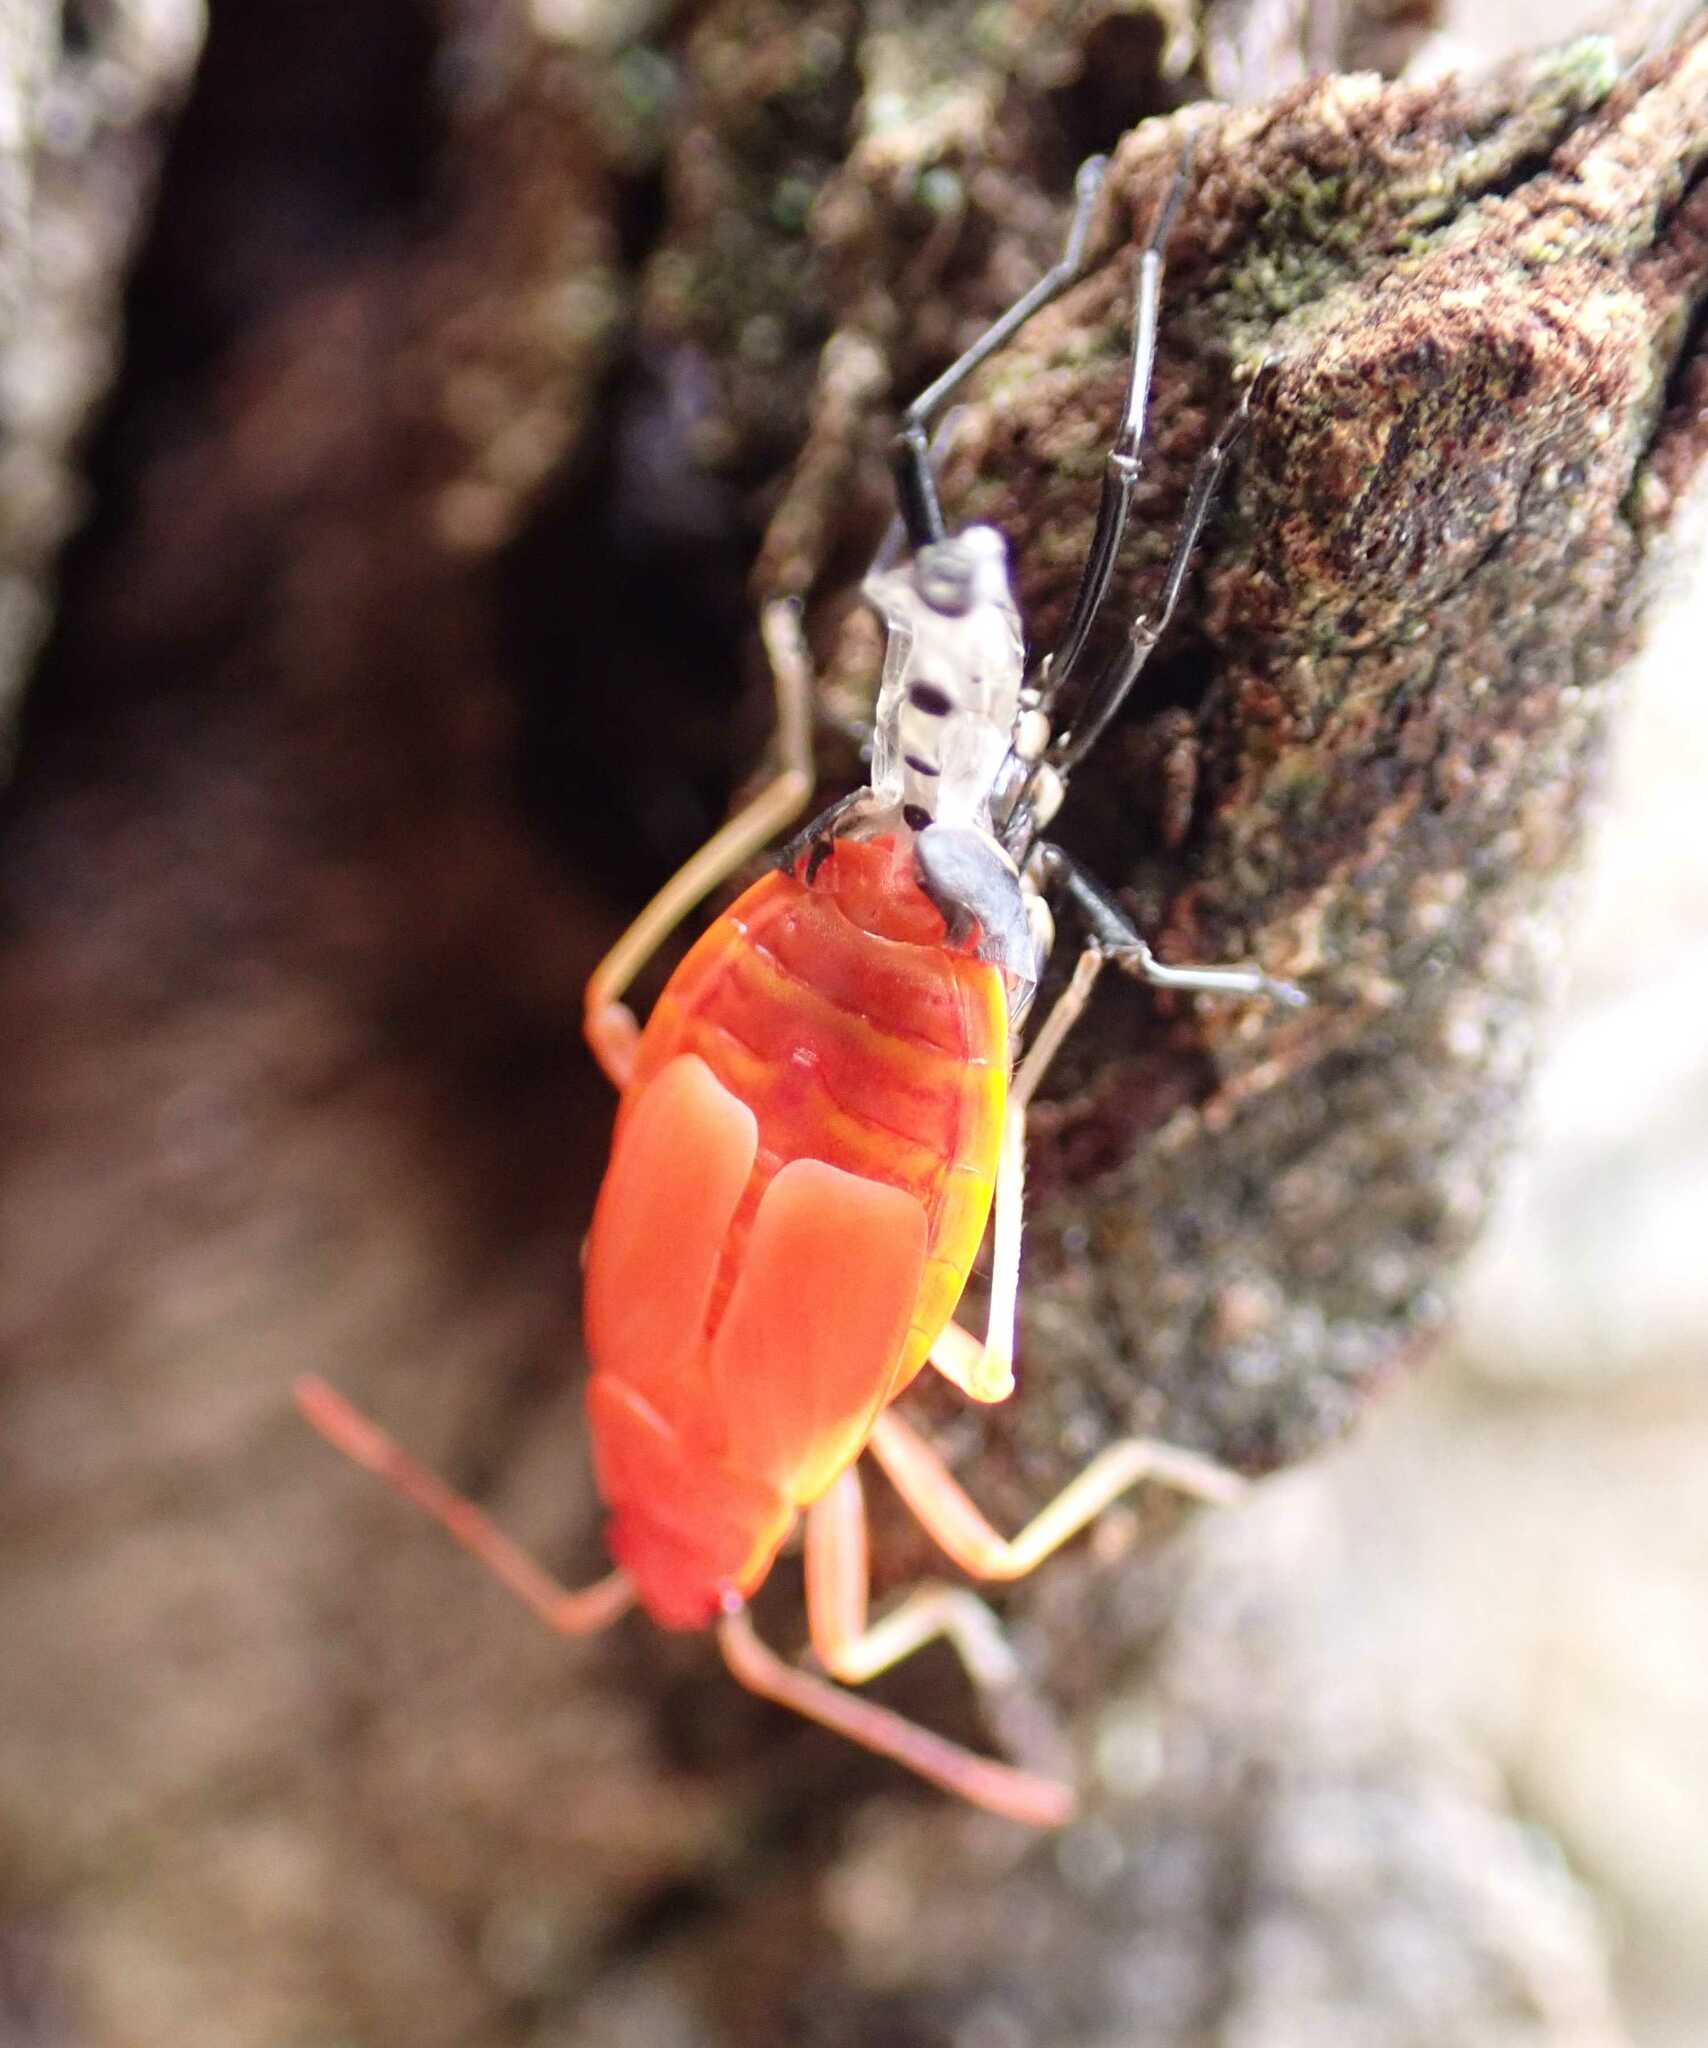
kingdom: Animalia
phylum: Arthropoda
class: Insecta
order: Hemiptera
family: Pyrrhocoridae
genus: Pyrrhocoris
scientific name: Pyrrhocoris apterus
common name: Firebug
